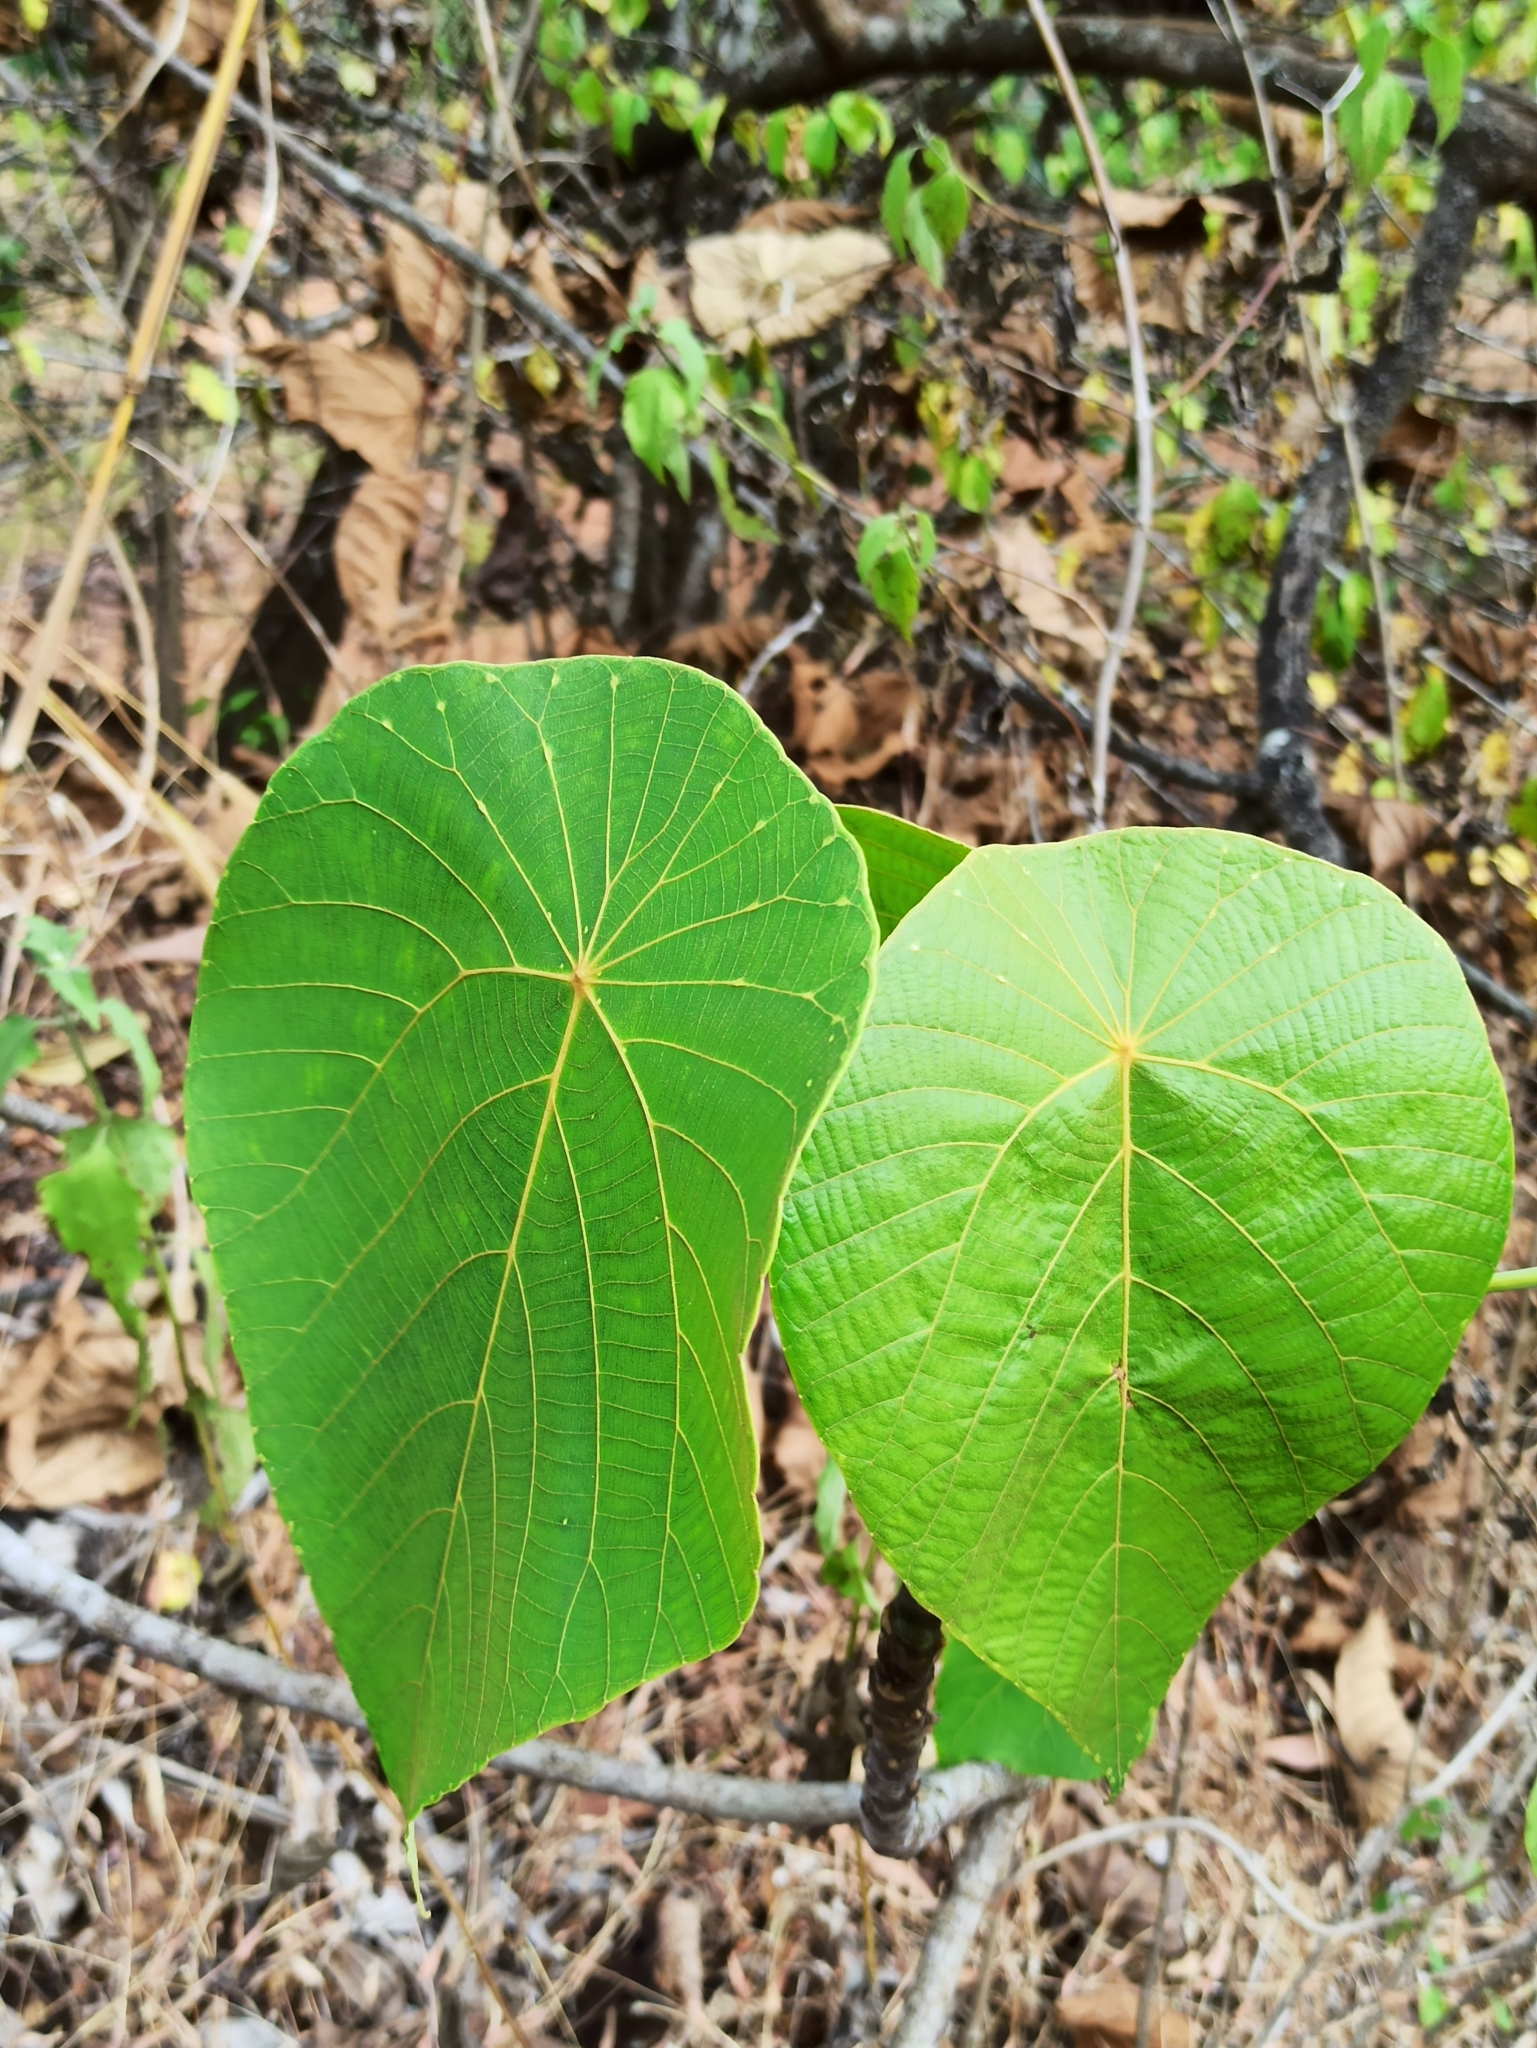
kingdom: Plantae
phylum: Tracheophyta
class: Magnoliopsida
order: Malpighiales
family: Euphorbiaceae
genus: Macaranga
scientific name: Macaranga peltata
